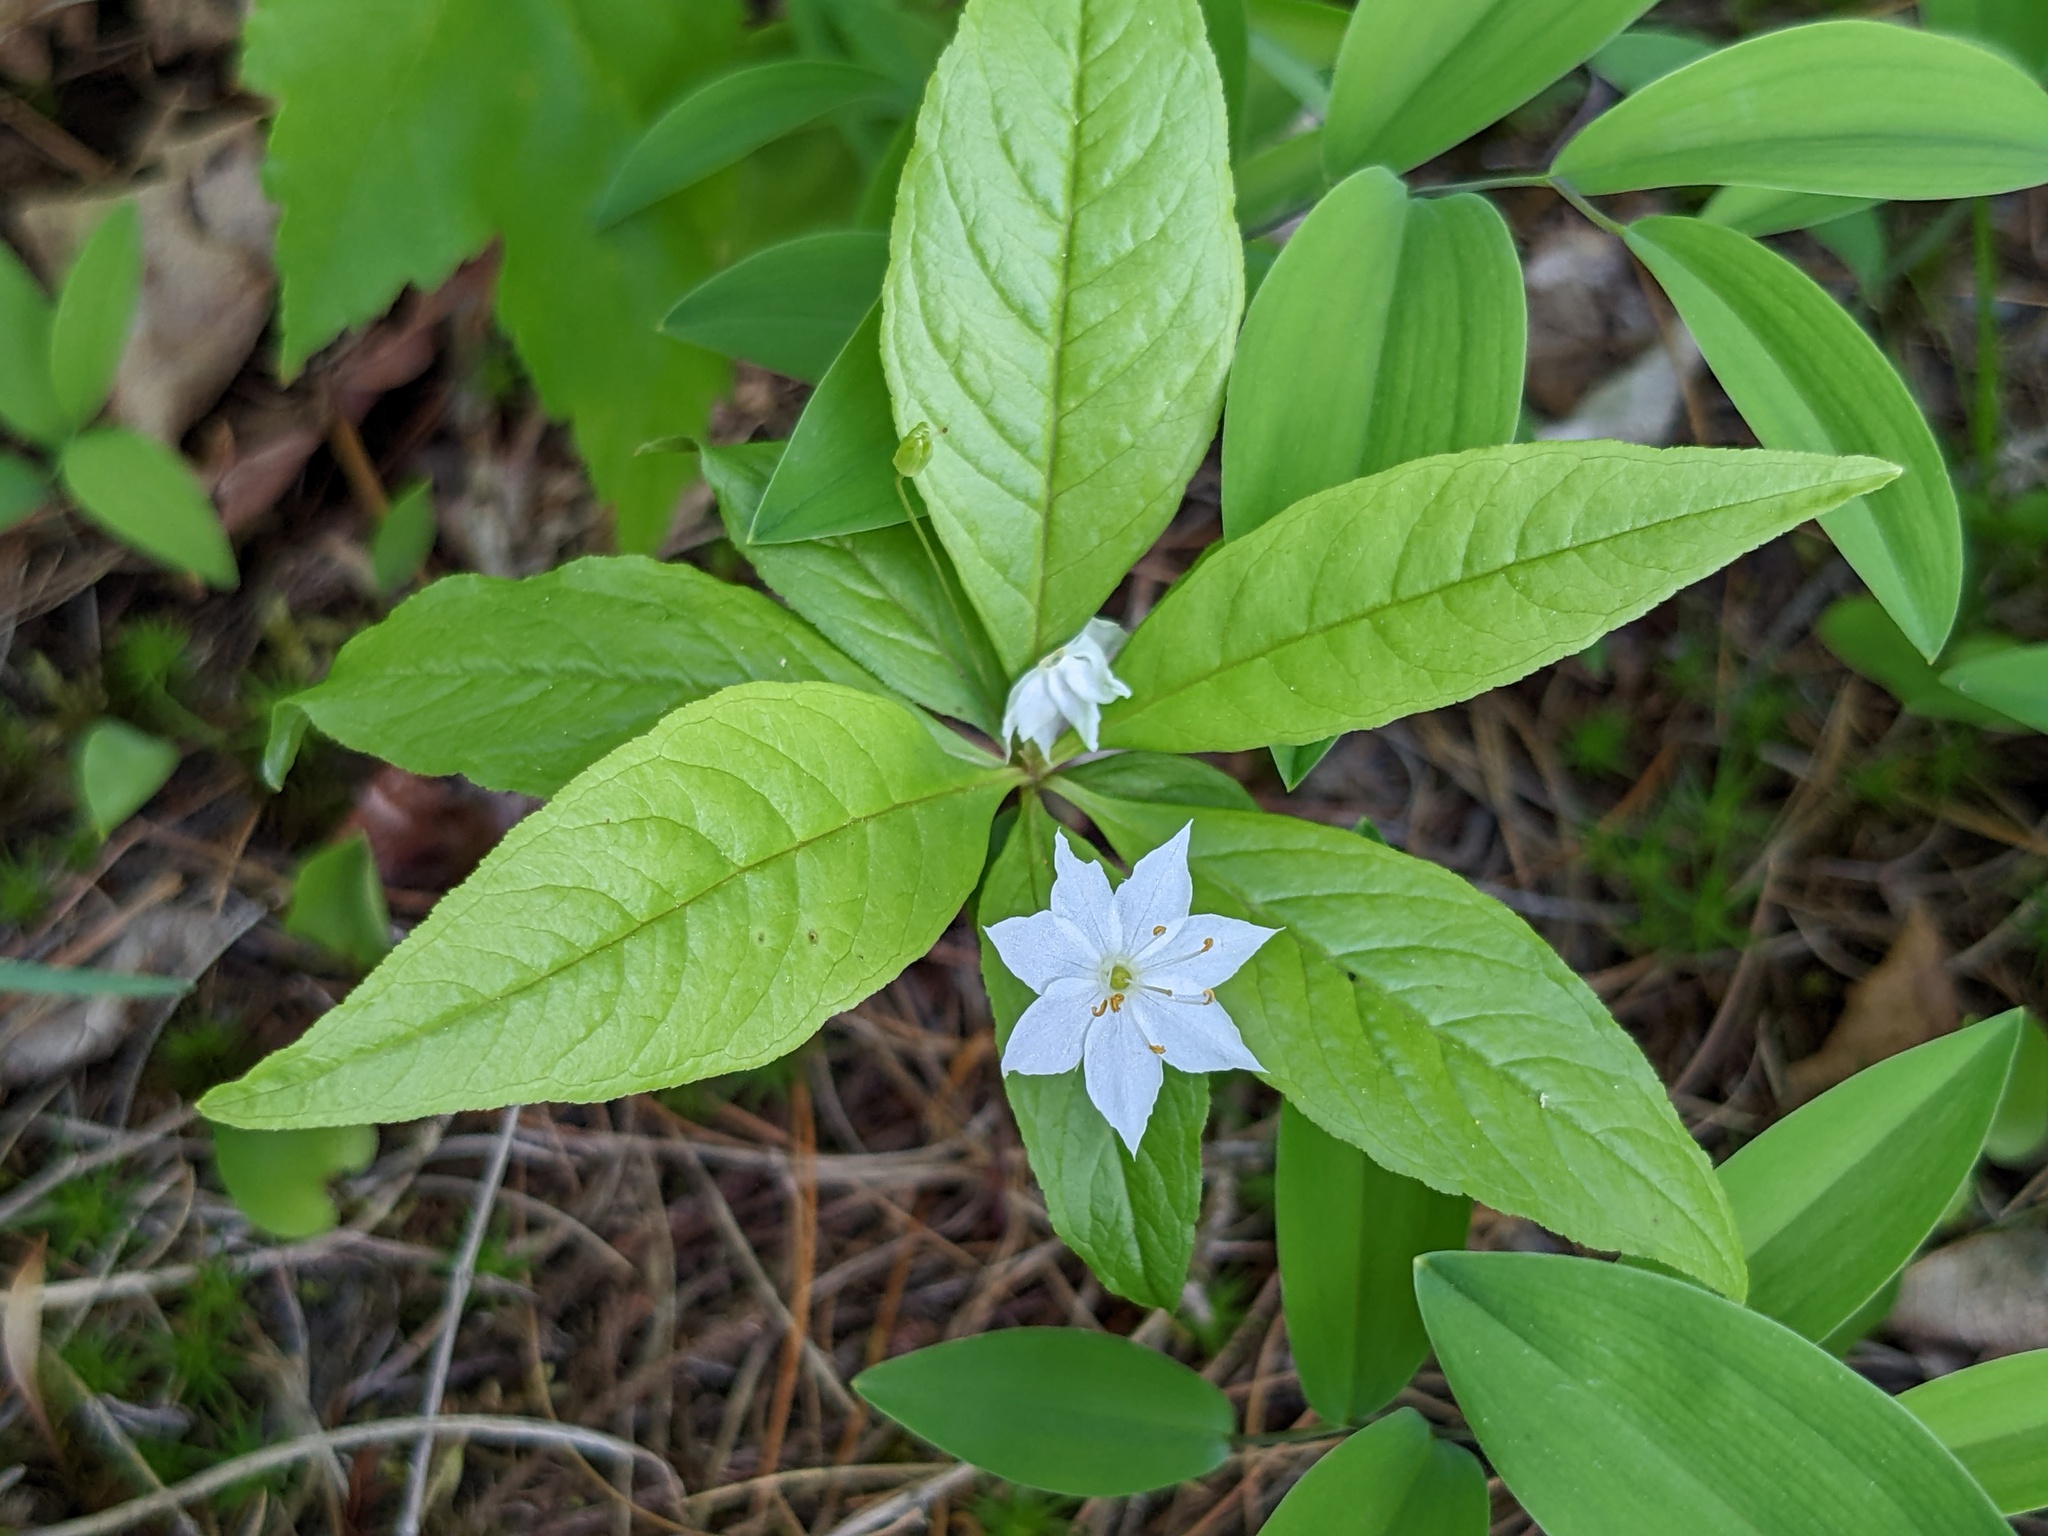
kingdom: Plantae
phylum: Tracheophyta
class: Magnoliopsida
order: Ericales
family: Primulaceae
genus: Lysimachia
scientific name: Lysimachia borealis
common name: American starflower
